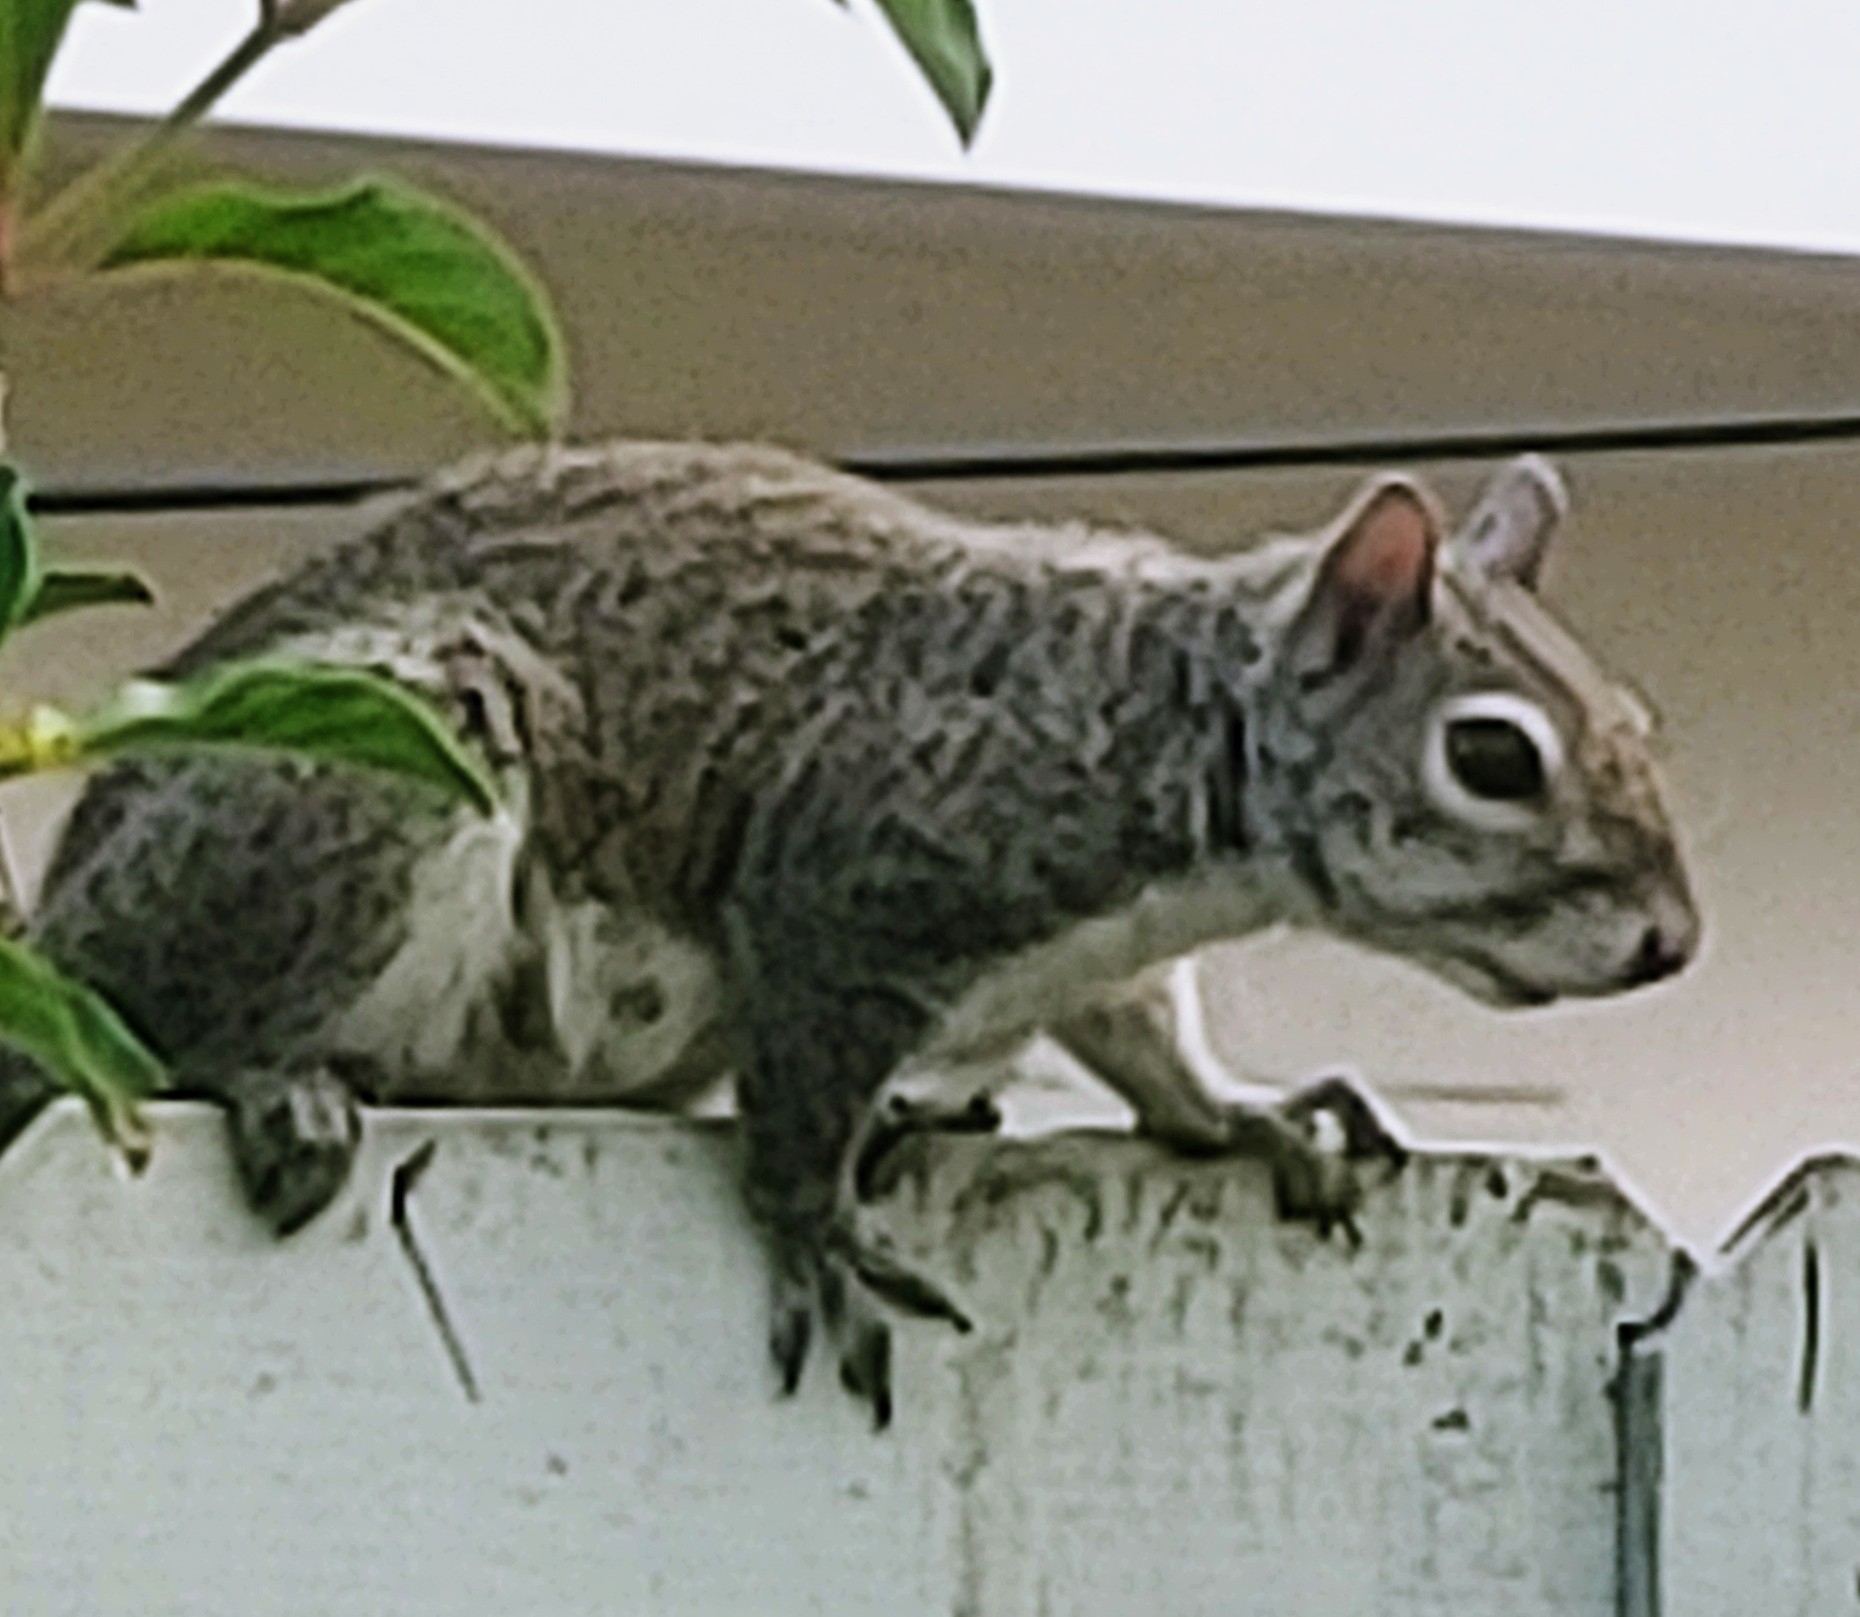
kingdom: Animalia
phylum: Chordata
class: Mammalia
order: Rodentia
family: Sciuridae
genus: Sciurus
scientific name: Sciurus carolinensis
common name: Eastern gray squirrel
